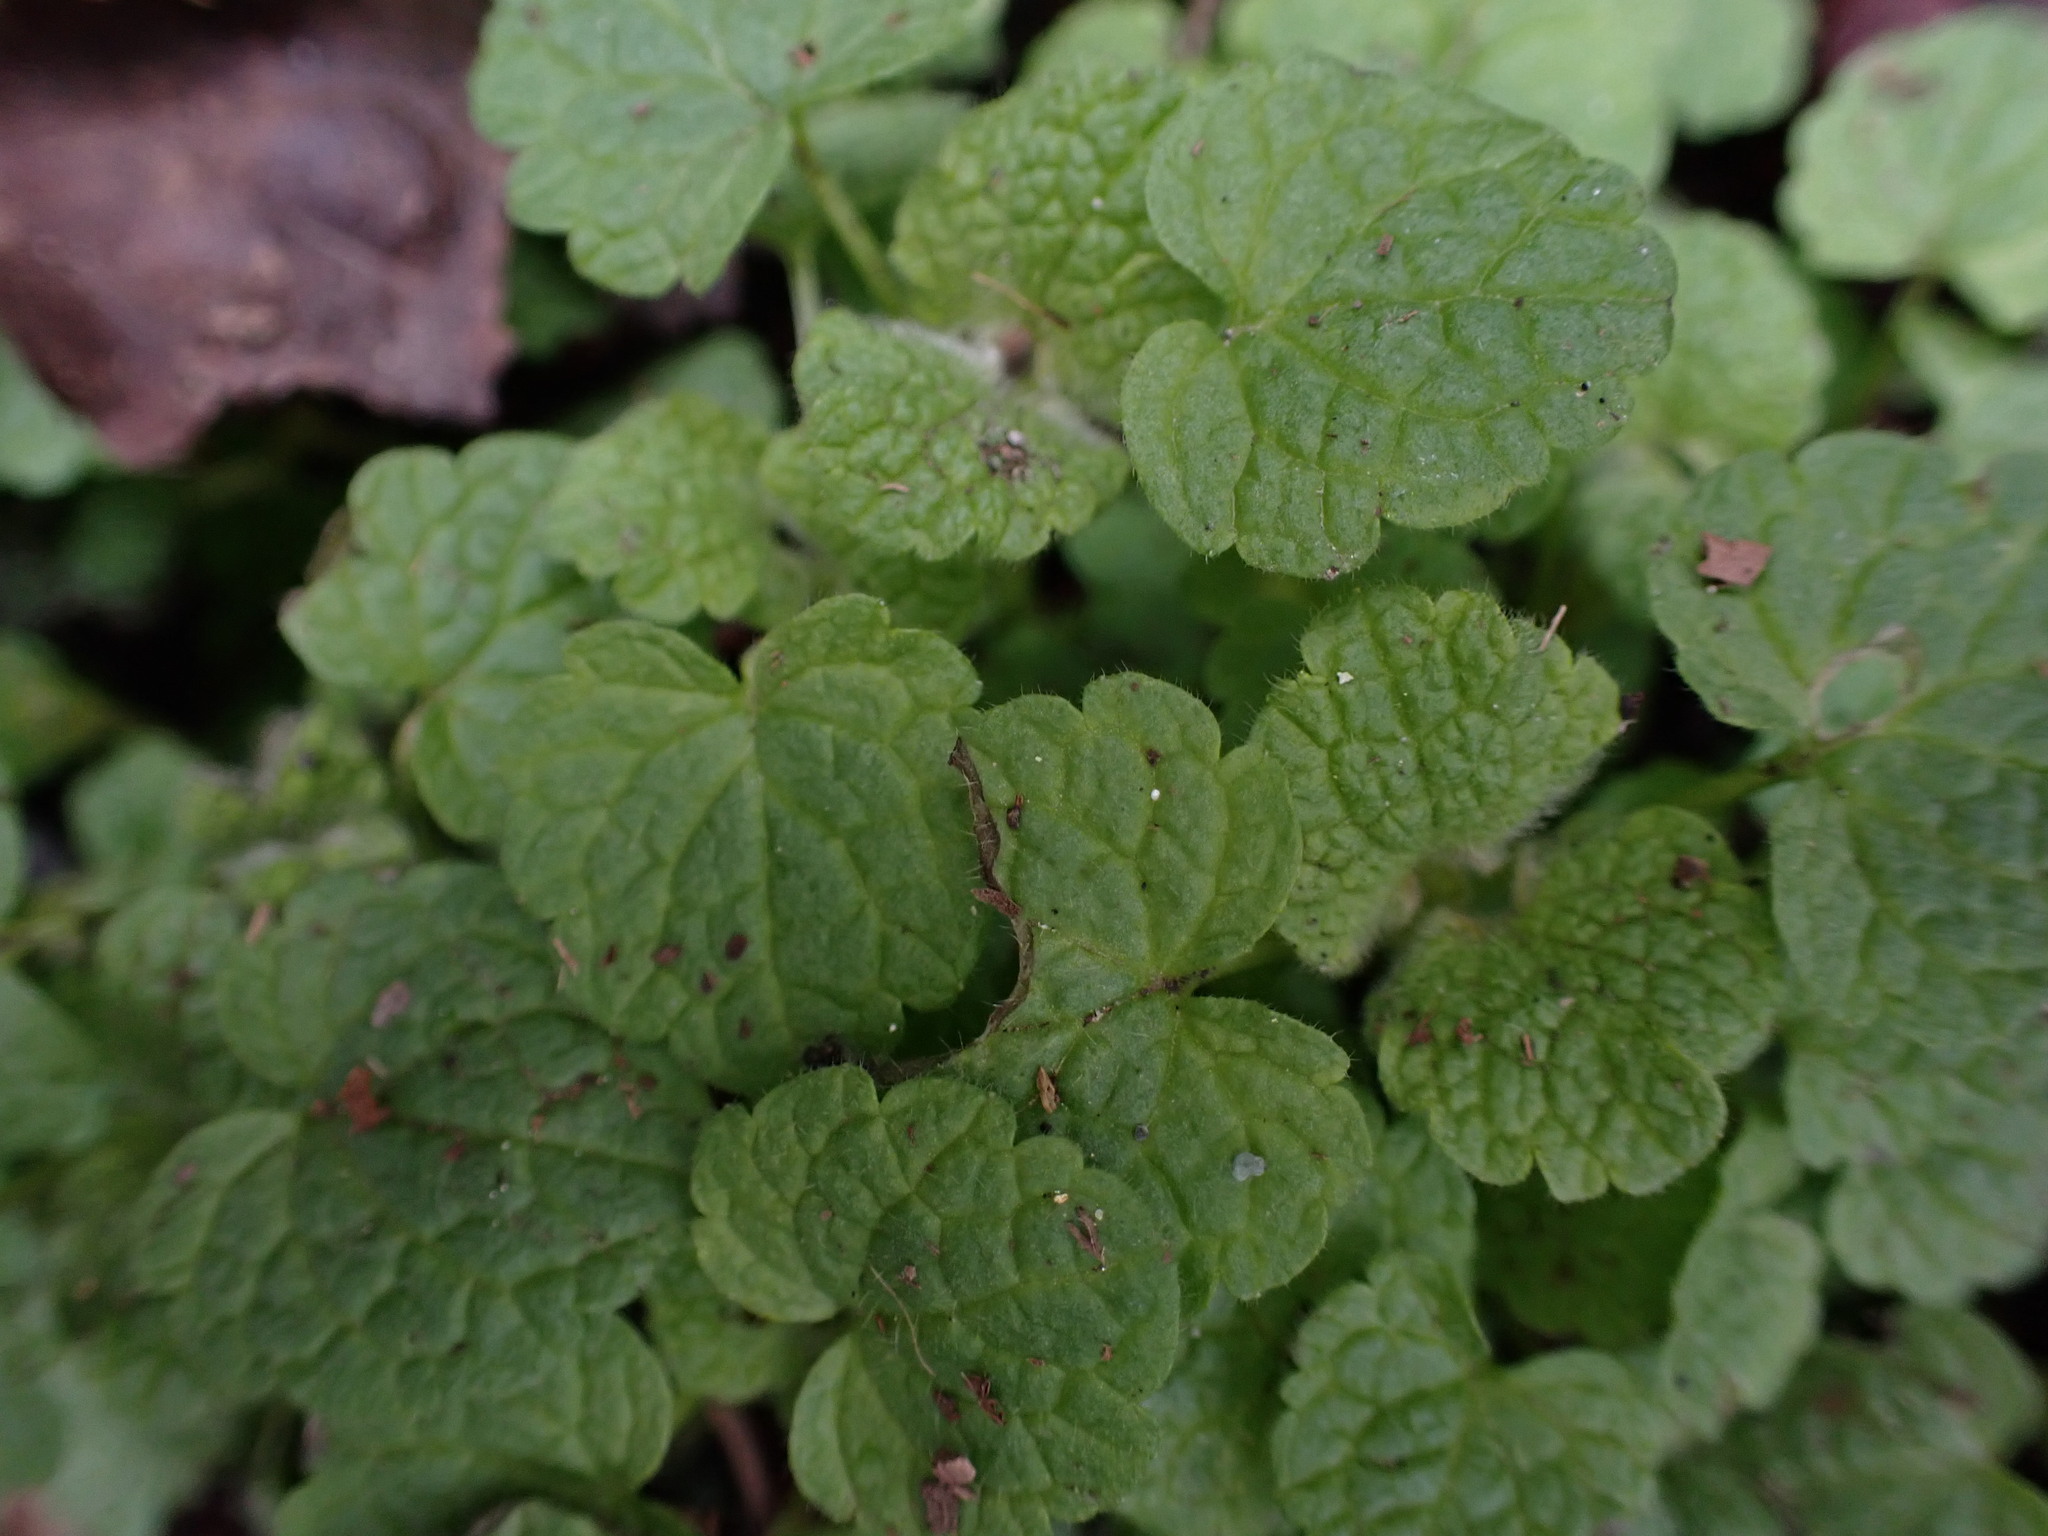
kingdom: Plantae
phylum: Tracheophyta
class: Magnoliopsida
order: Lamiales
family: Lamiaceae
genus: Lamium
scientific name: Lamium purpureum
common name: Red dead-nettle
